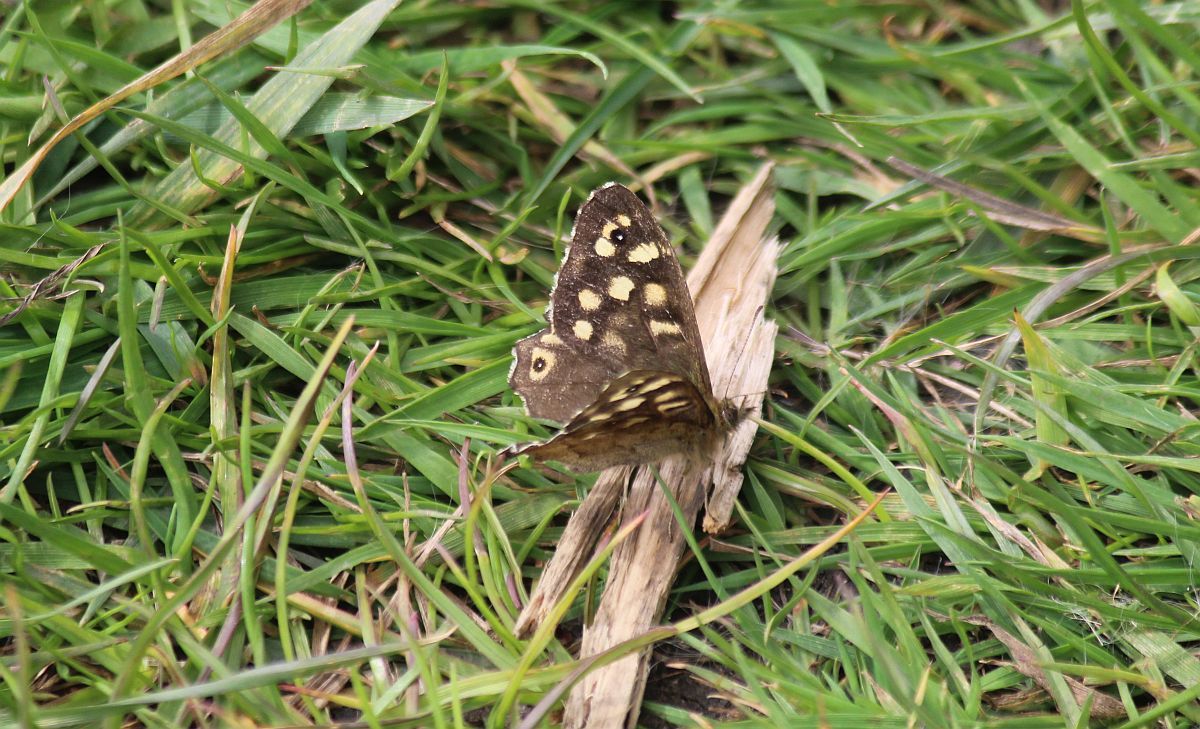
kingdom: Animalia
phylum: Arthropoda
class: Insecta
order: Lepidoptera
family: Nymphalidae
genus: Pararge
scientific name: Pararge aegeria
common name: Speckled wood
